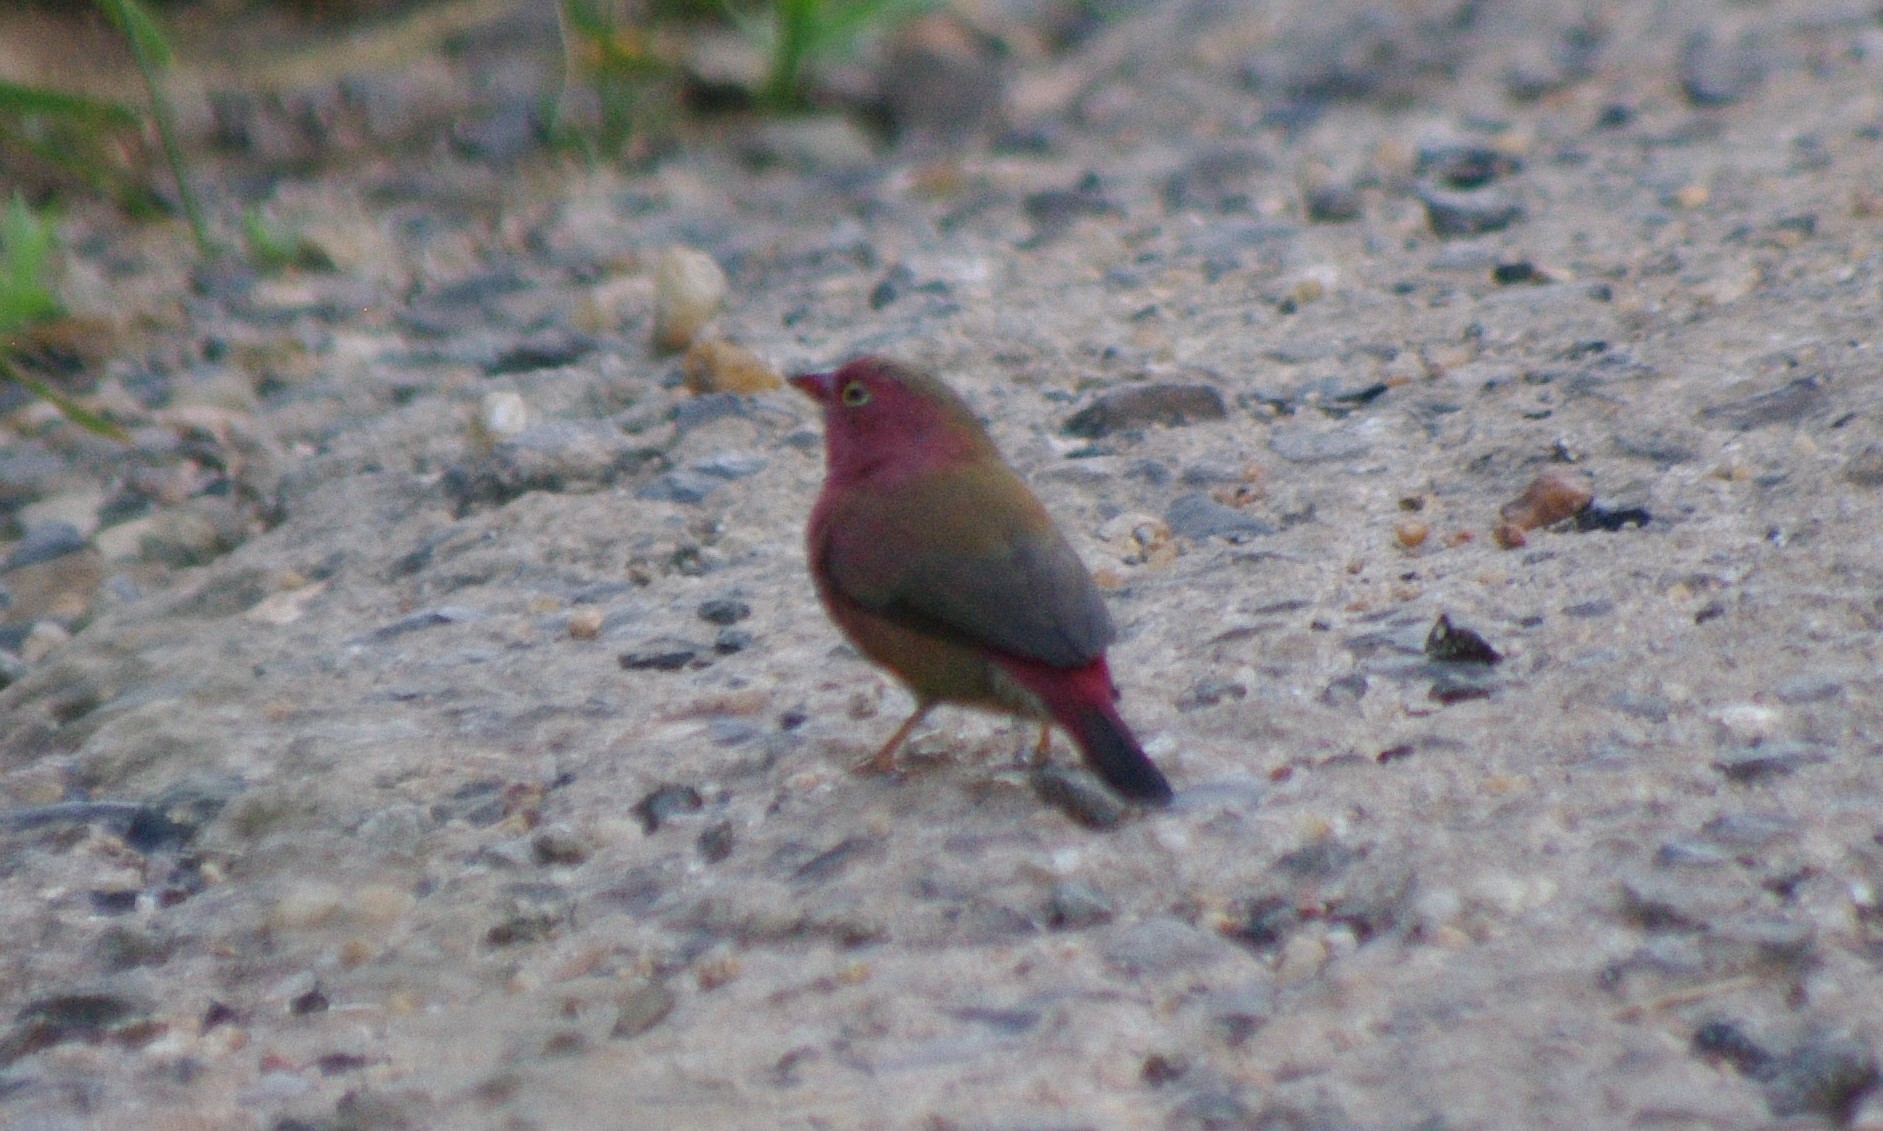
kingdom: Animalia
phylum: Chordata
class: Aves
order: Passeriformes
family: Estrildidae
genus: Lagonosticta
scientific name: Lagonosticta senegala
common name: Red-billed firefinch
